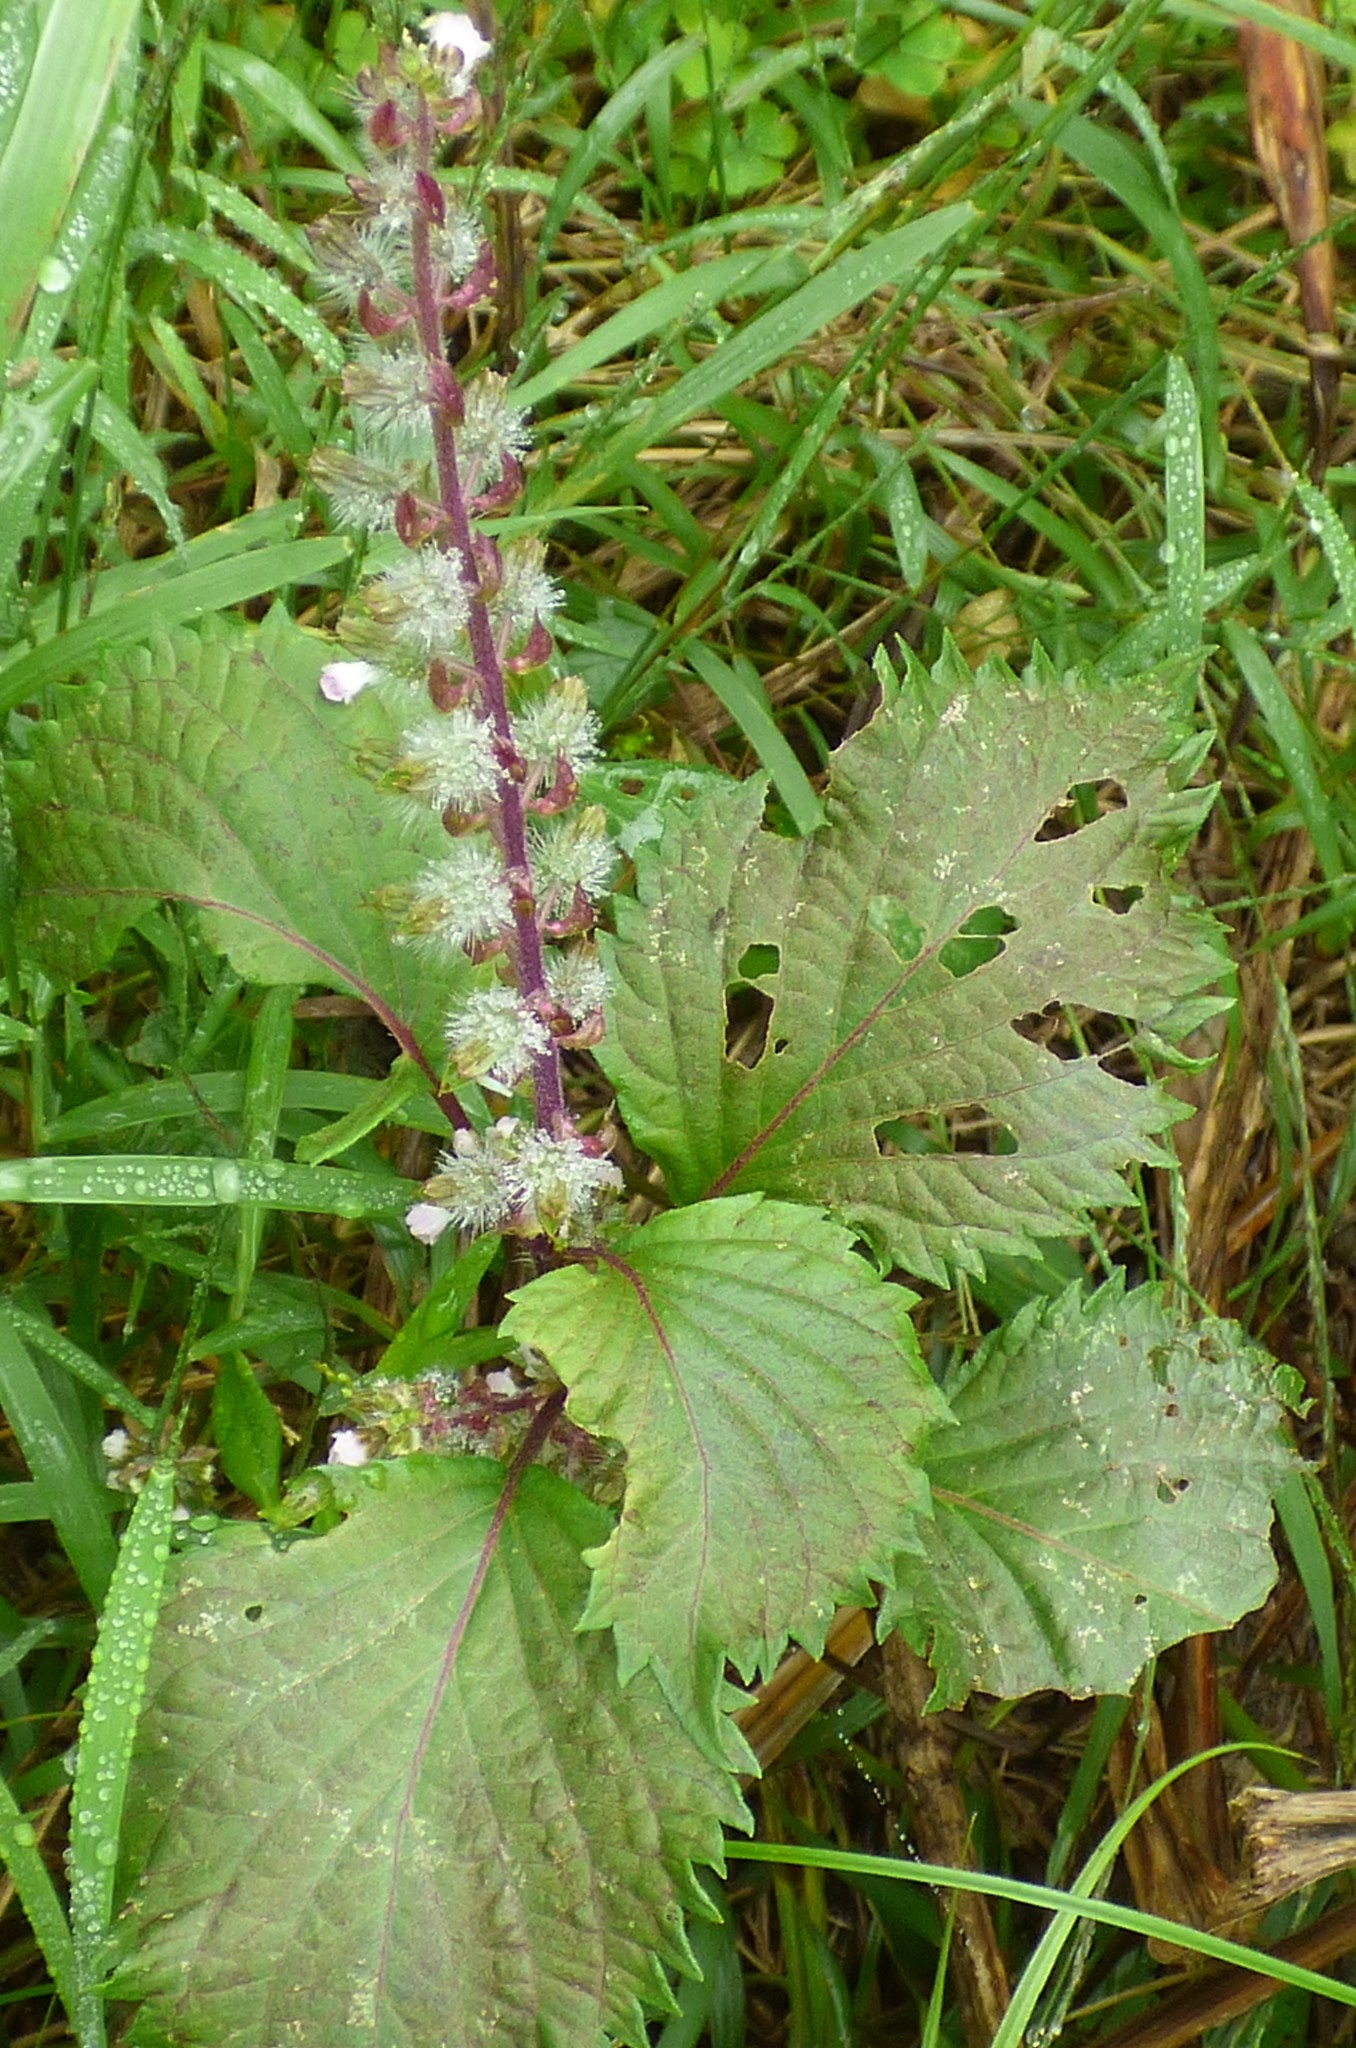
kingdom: Plantae
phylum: Tracheophyta
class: Magnoliopsida
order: Lamiales
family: Lamiaceae
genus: Perilla
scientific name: Perilla frutescens
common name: Perilla
